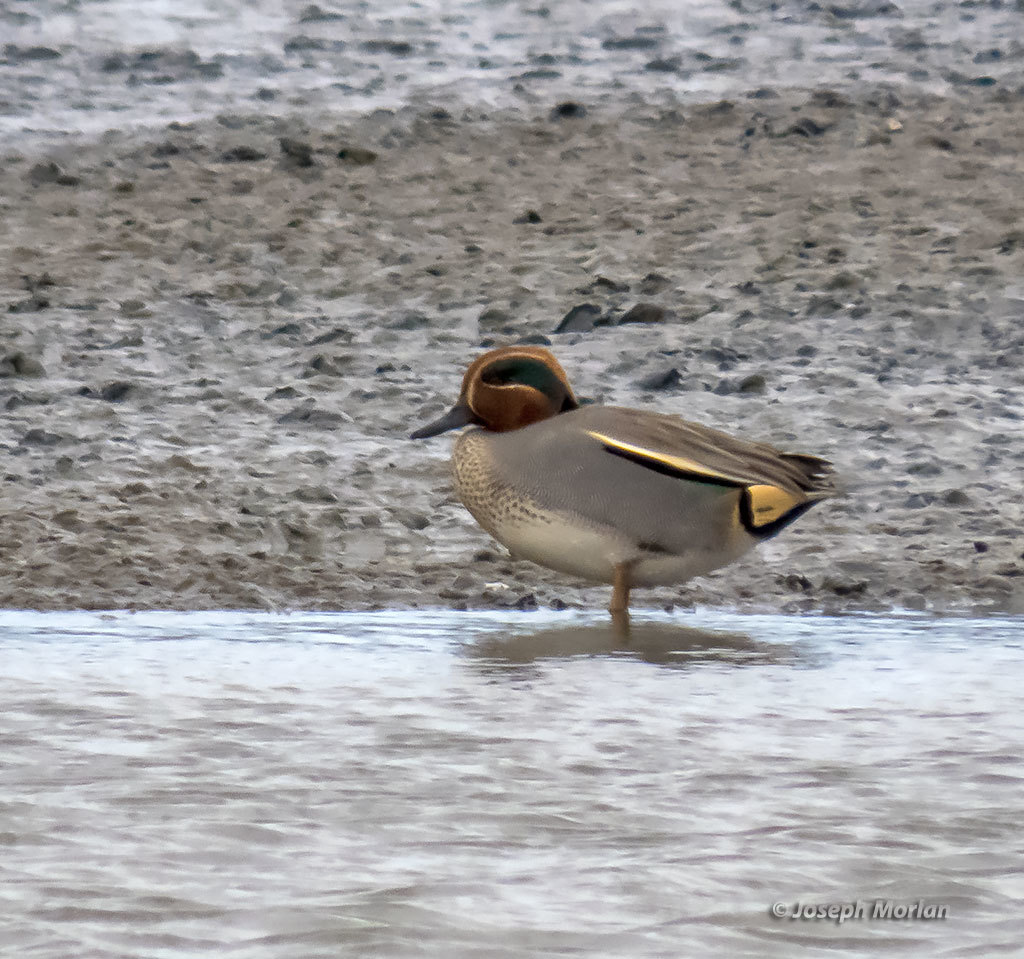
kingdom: Animalia
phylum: Chordata
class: Aves
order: Anseriformes
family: Anatidae
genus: Anas
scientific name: Anas crecca
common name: Eurasian teal
